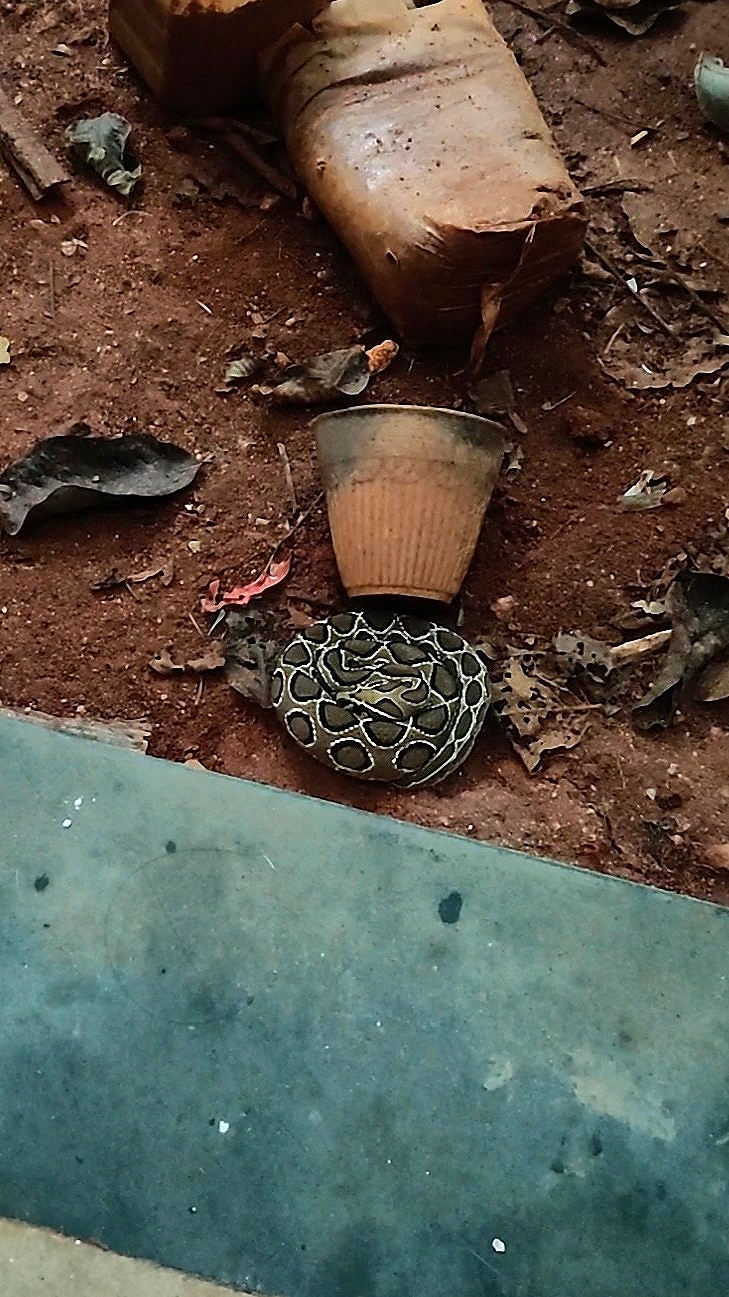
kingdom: Animalia
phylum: Chordata
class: Squamata
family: Viperidae
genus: Daboia
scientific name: Daboia russelii
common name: Western russel’s viper
